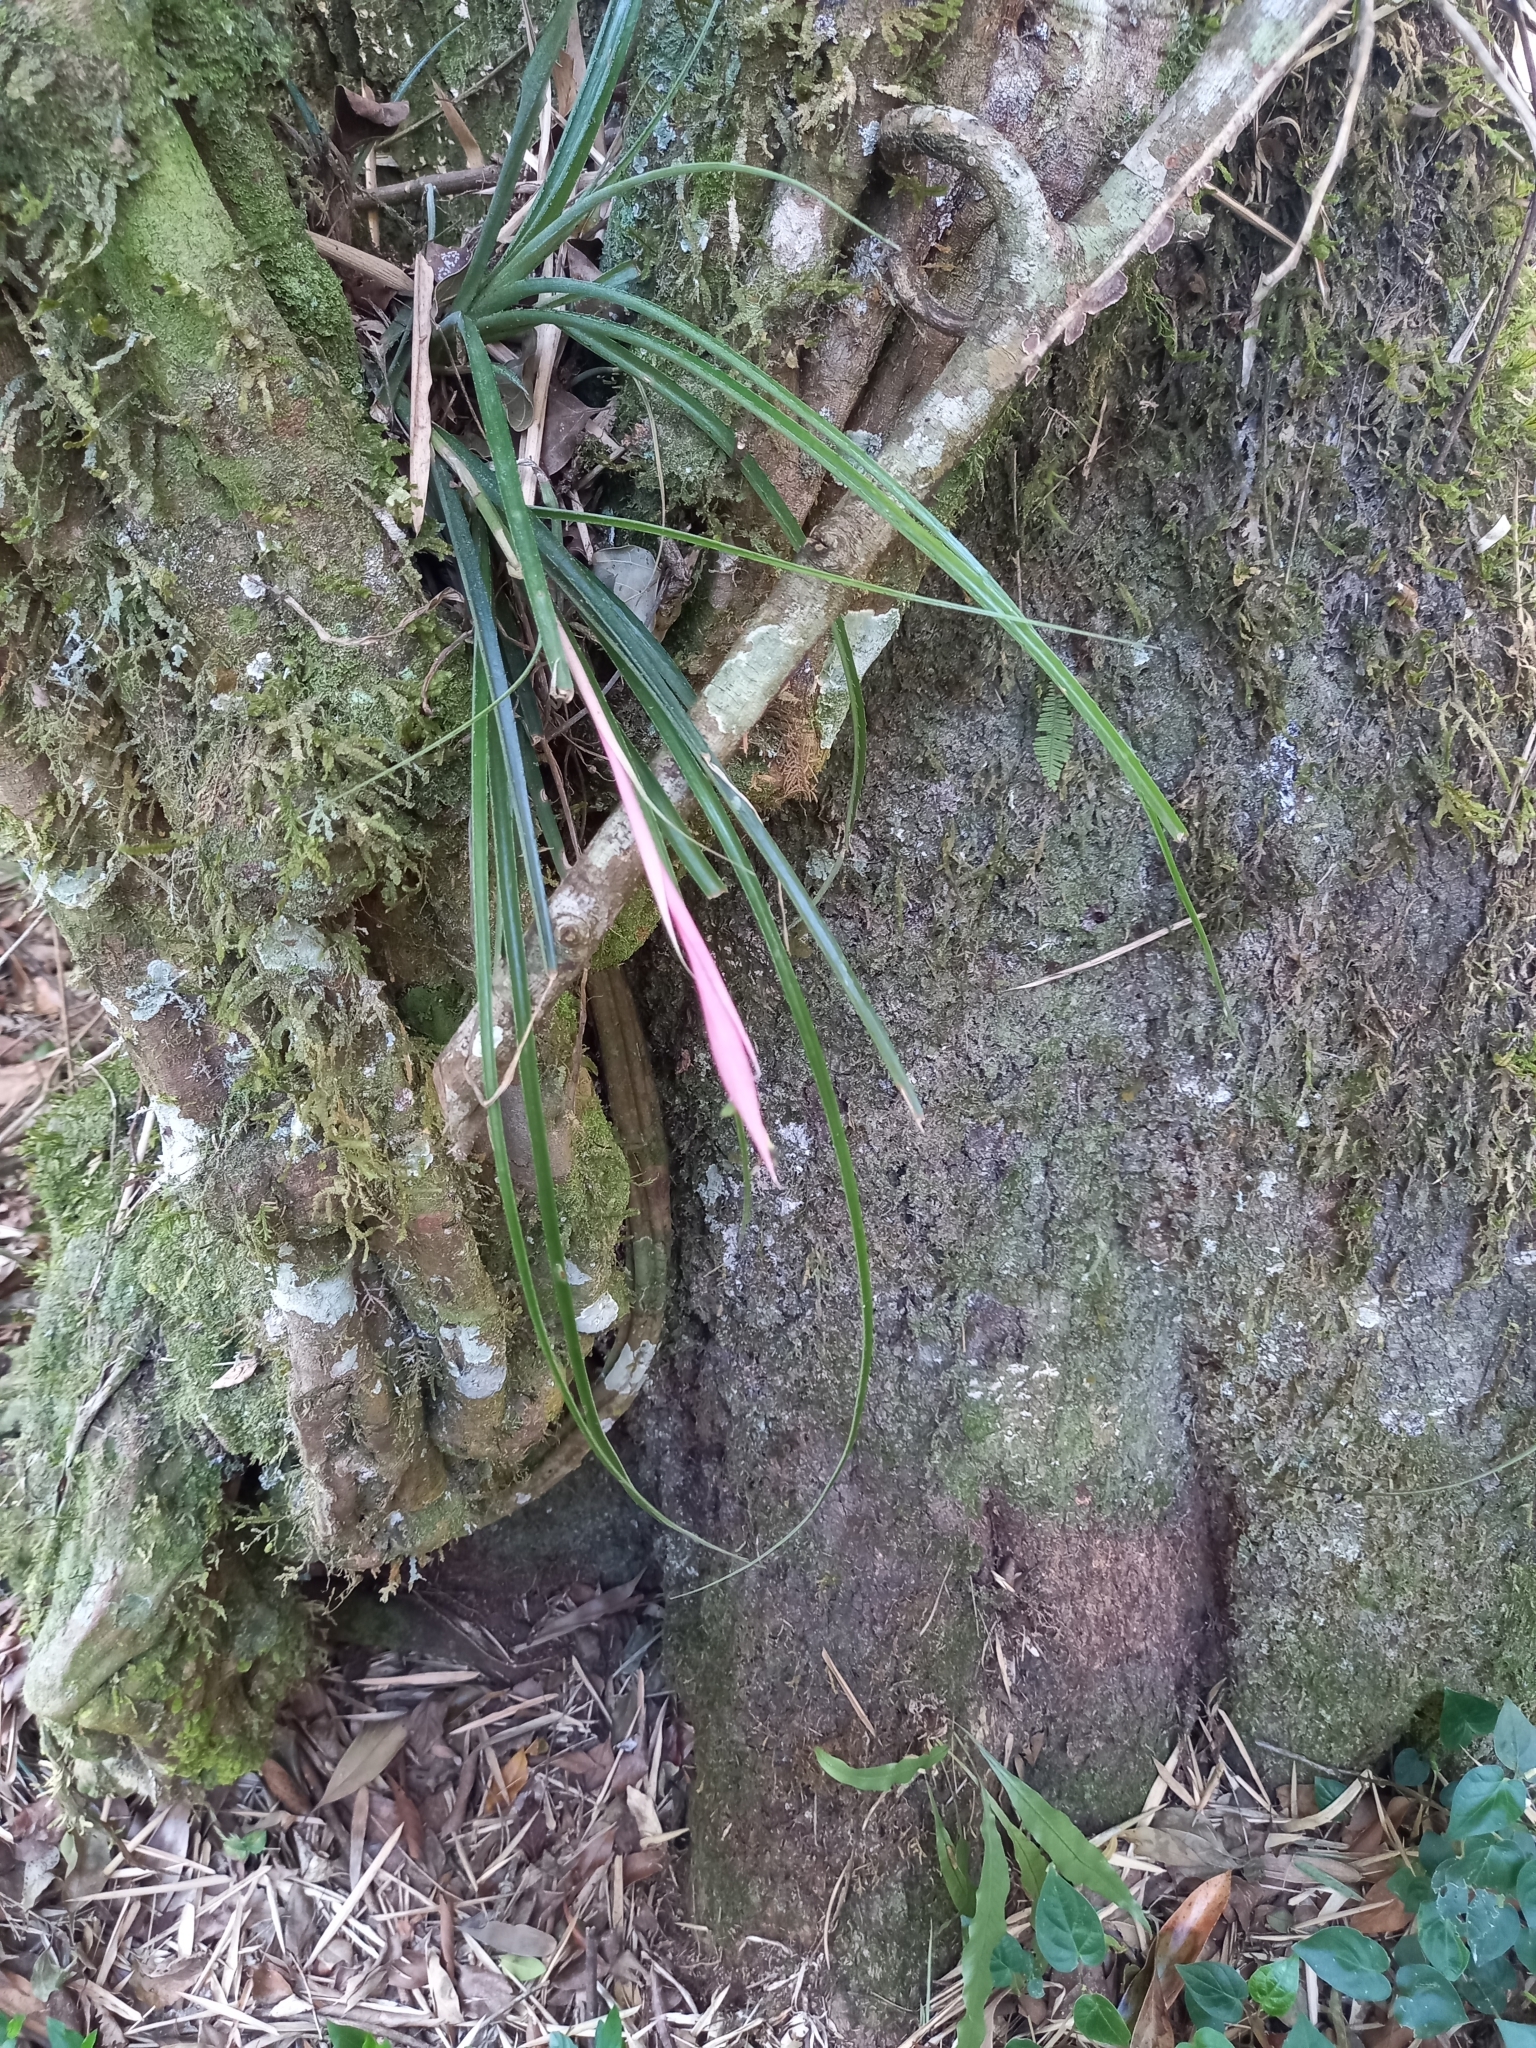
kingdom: Plantae
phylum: Tracheophyta
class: Liliopsida
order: Poales
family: Bromeliaceae
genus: Billbergia
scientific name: Billbergia nutans
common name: Friendship-plant
